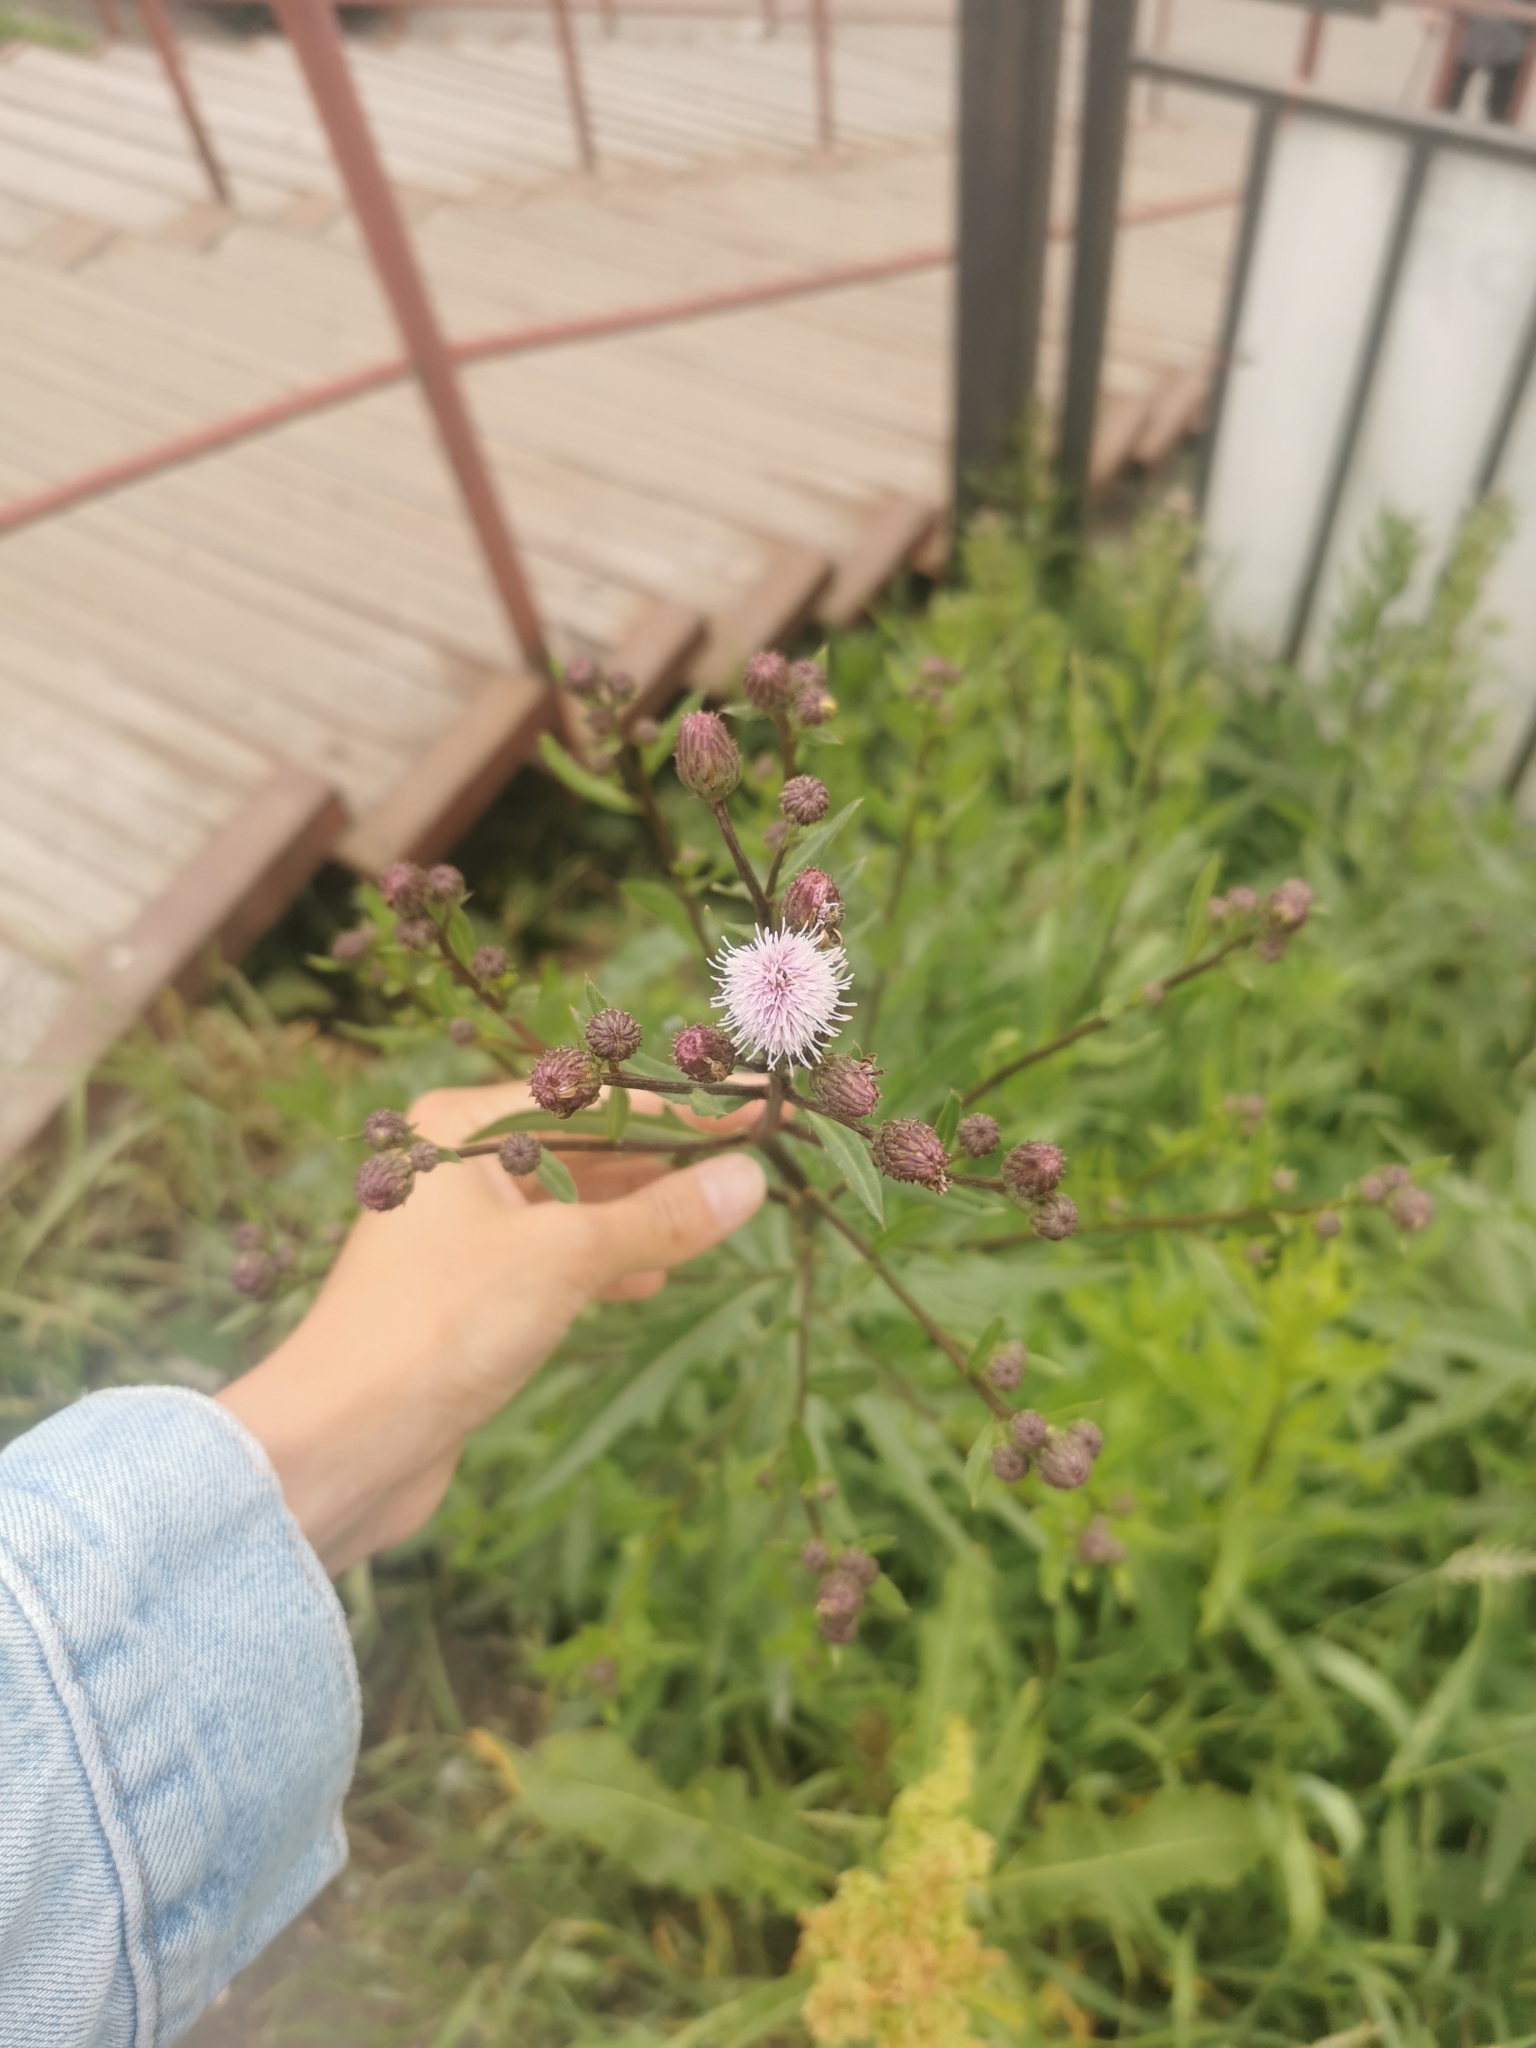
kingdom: Plantae
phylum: Tracheophyta
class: Magnoliopsida
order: Asterales
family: Asteraceae
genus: Cirsium
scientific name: Cirsium arvense
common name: Creeping thistle
